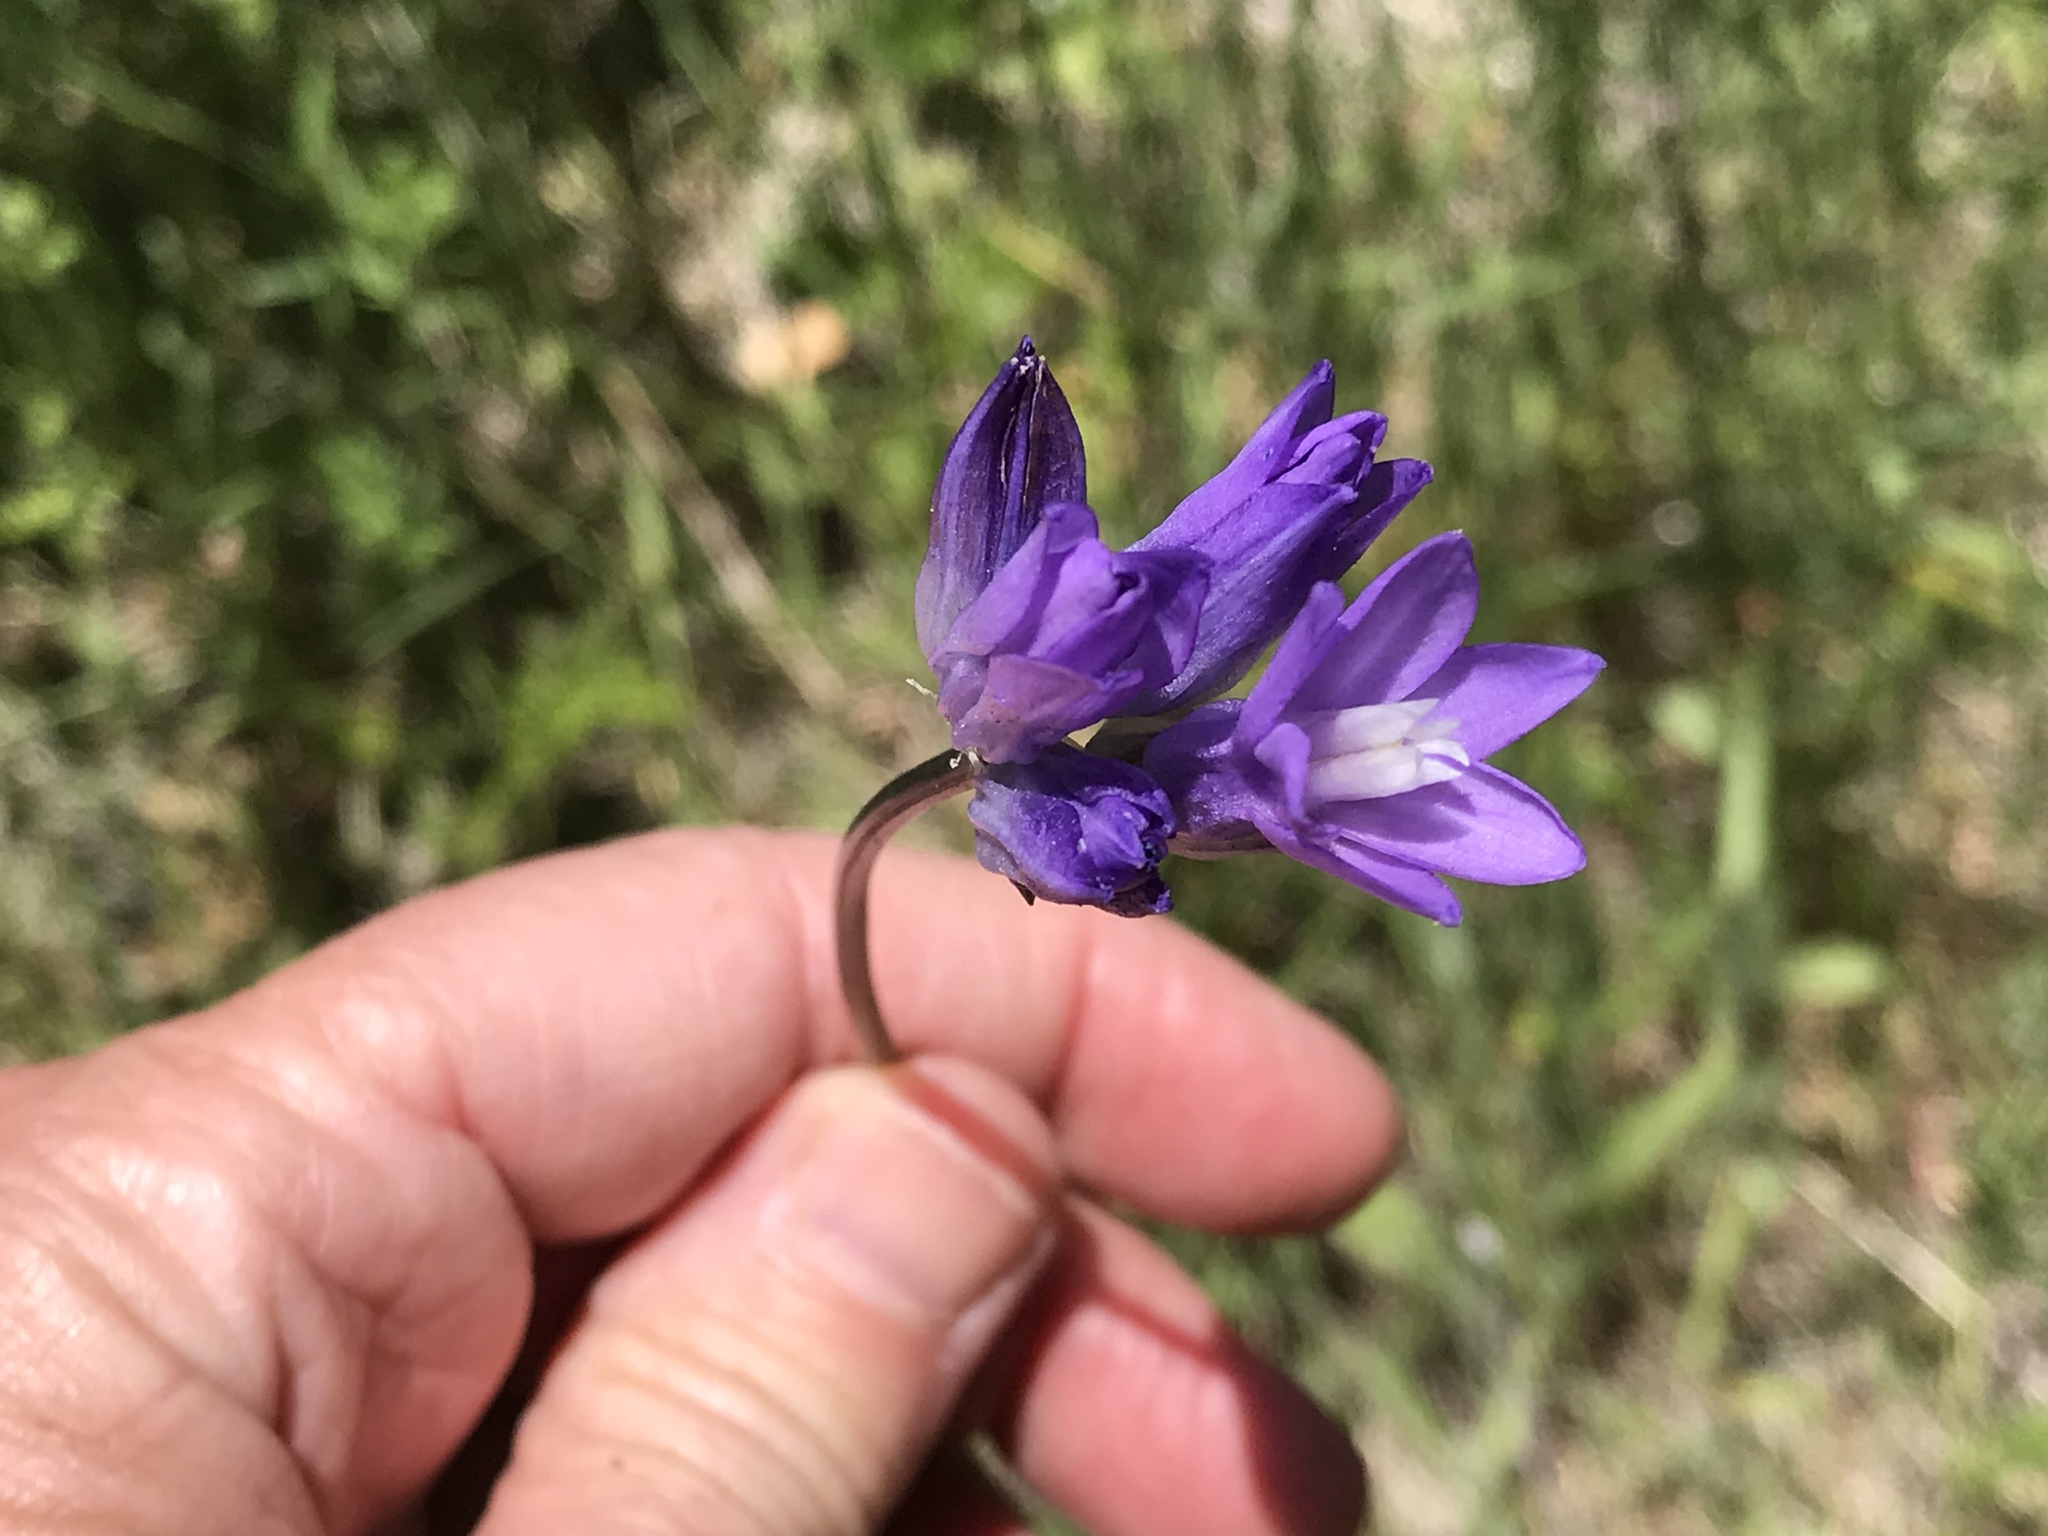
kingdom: Plantae
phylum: Tracheophyta
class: Liliopsida
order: Asparagales
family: Asparagaceae
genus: Dipterostemon
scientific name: Dipterostemon capitatus
